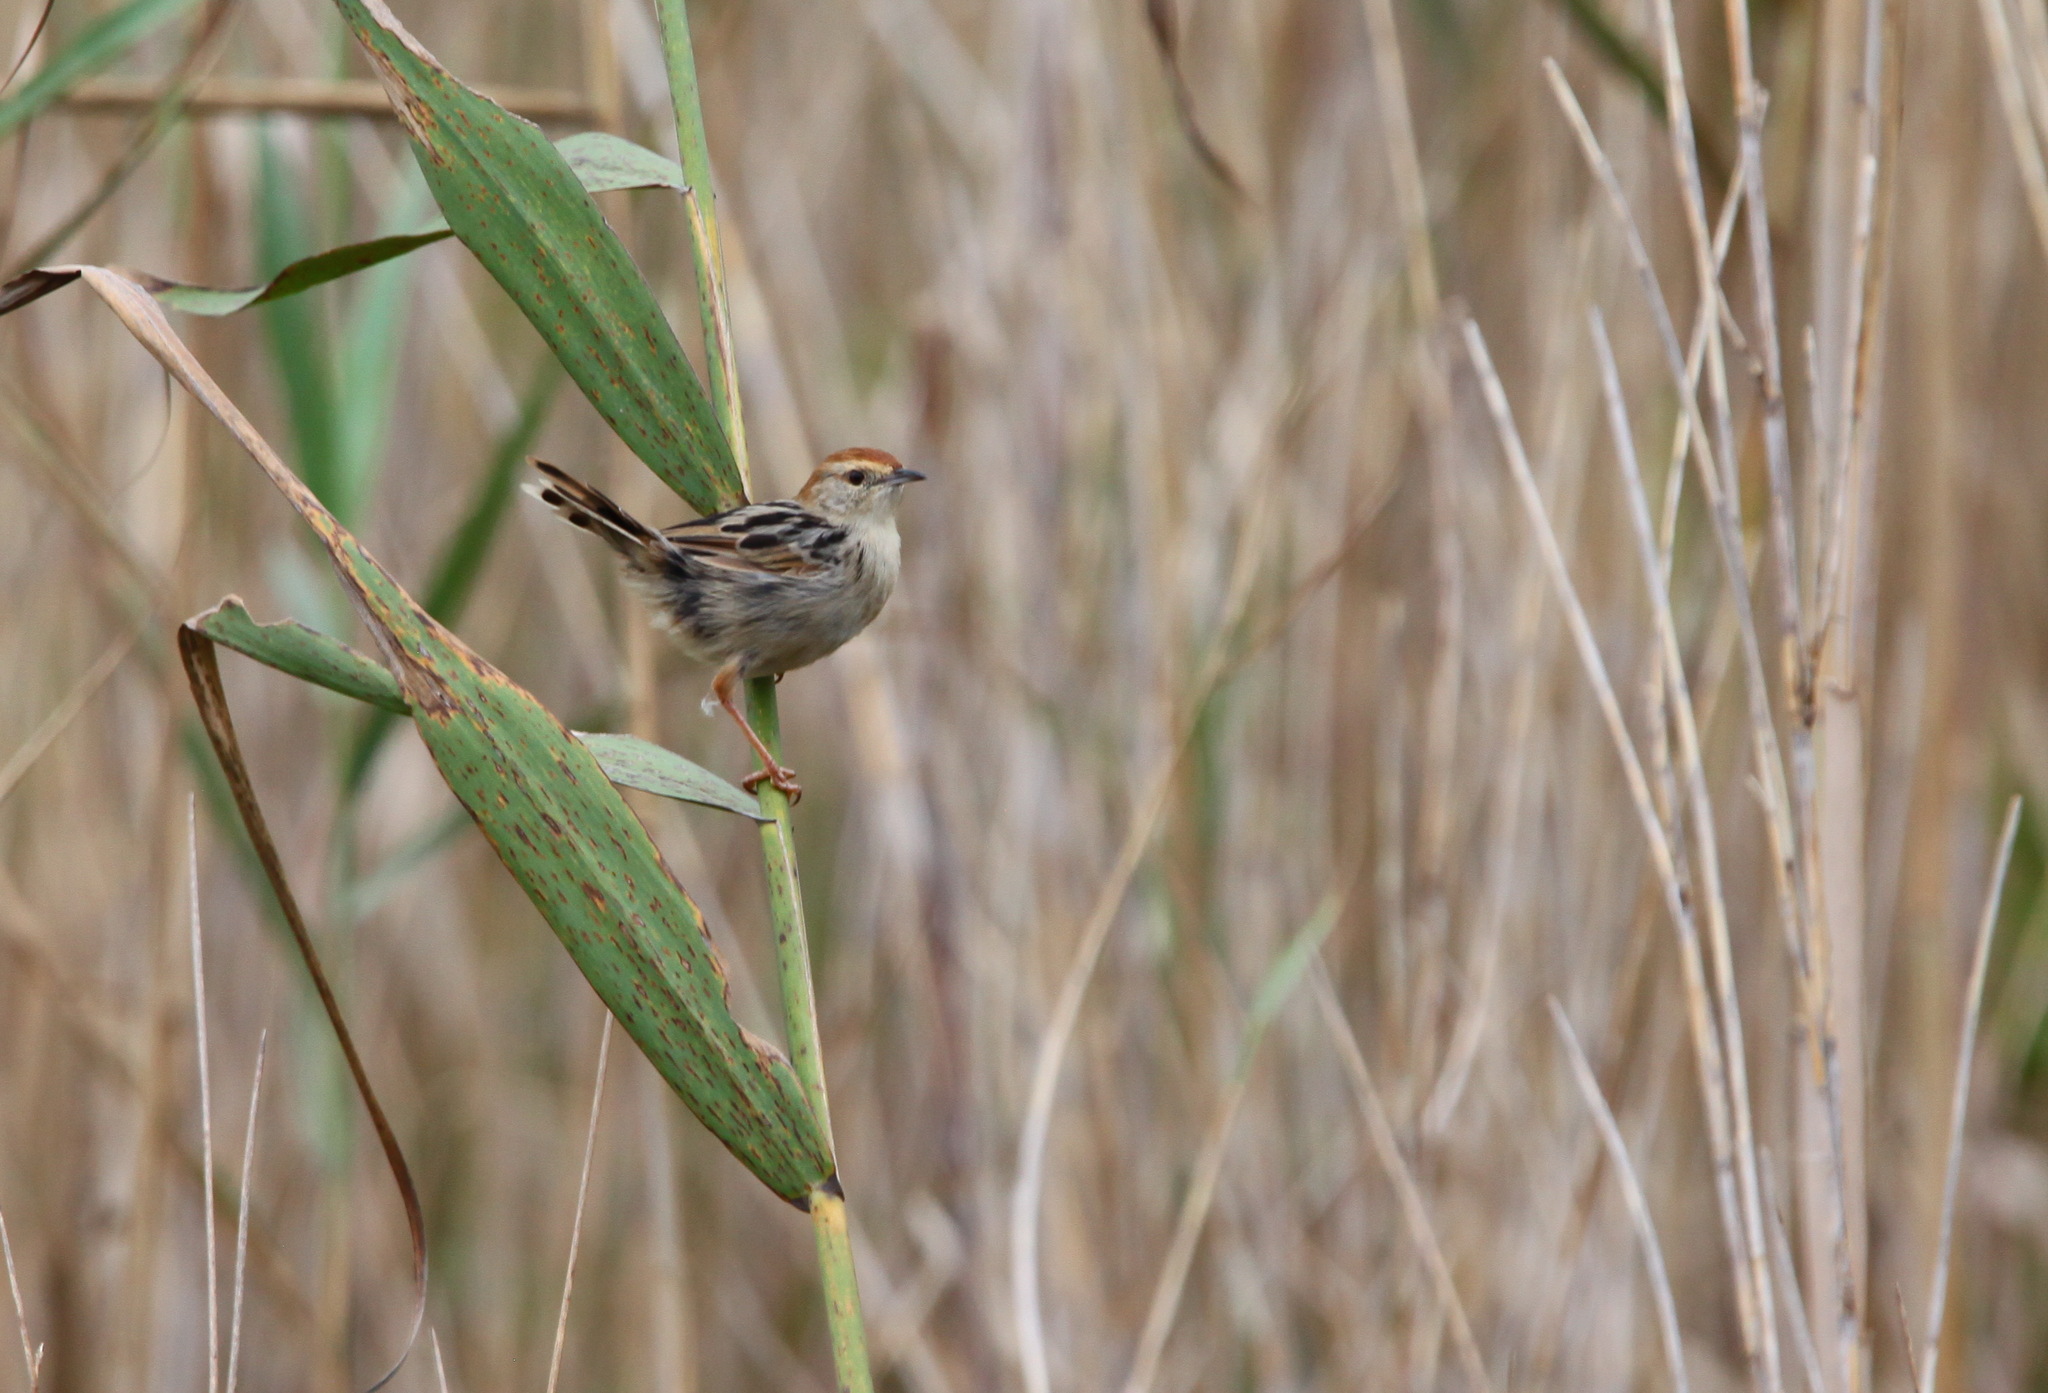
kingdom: Animalia
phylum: Chordata
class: Aves
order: Passeriformes
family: Cisticolidae
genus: Cisticola
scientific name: Cisticola tinniens
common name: Levaillant's cisticola
